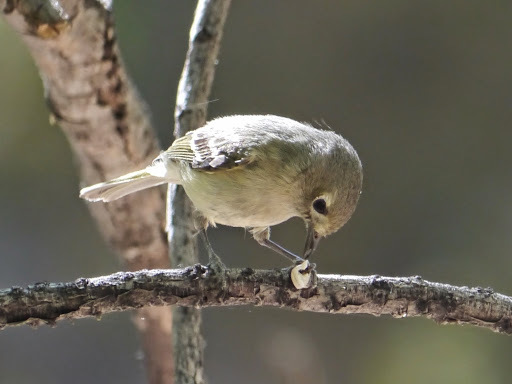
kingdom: Animalia
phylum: Chordata
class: Aves
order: Passeriformes
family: Vireonidae
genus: Vireo
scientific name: Vireo huttoni
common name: Hutton's vireo
